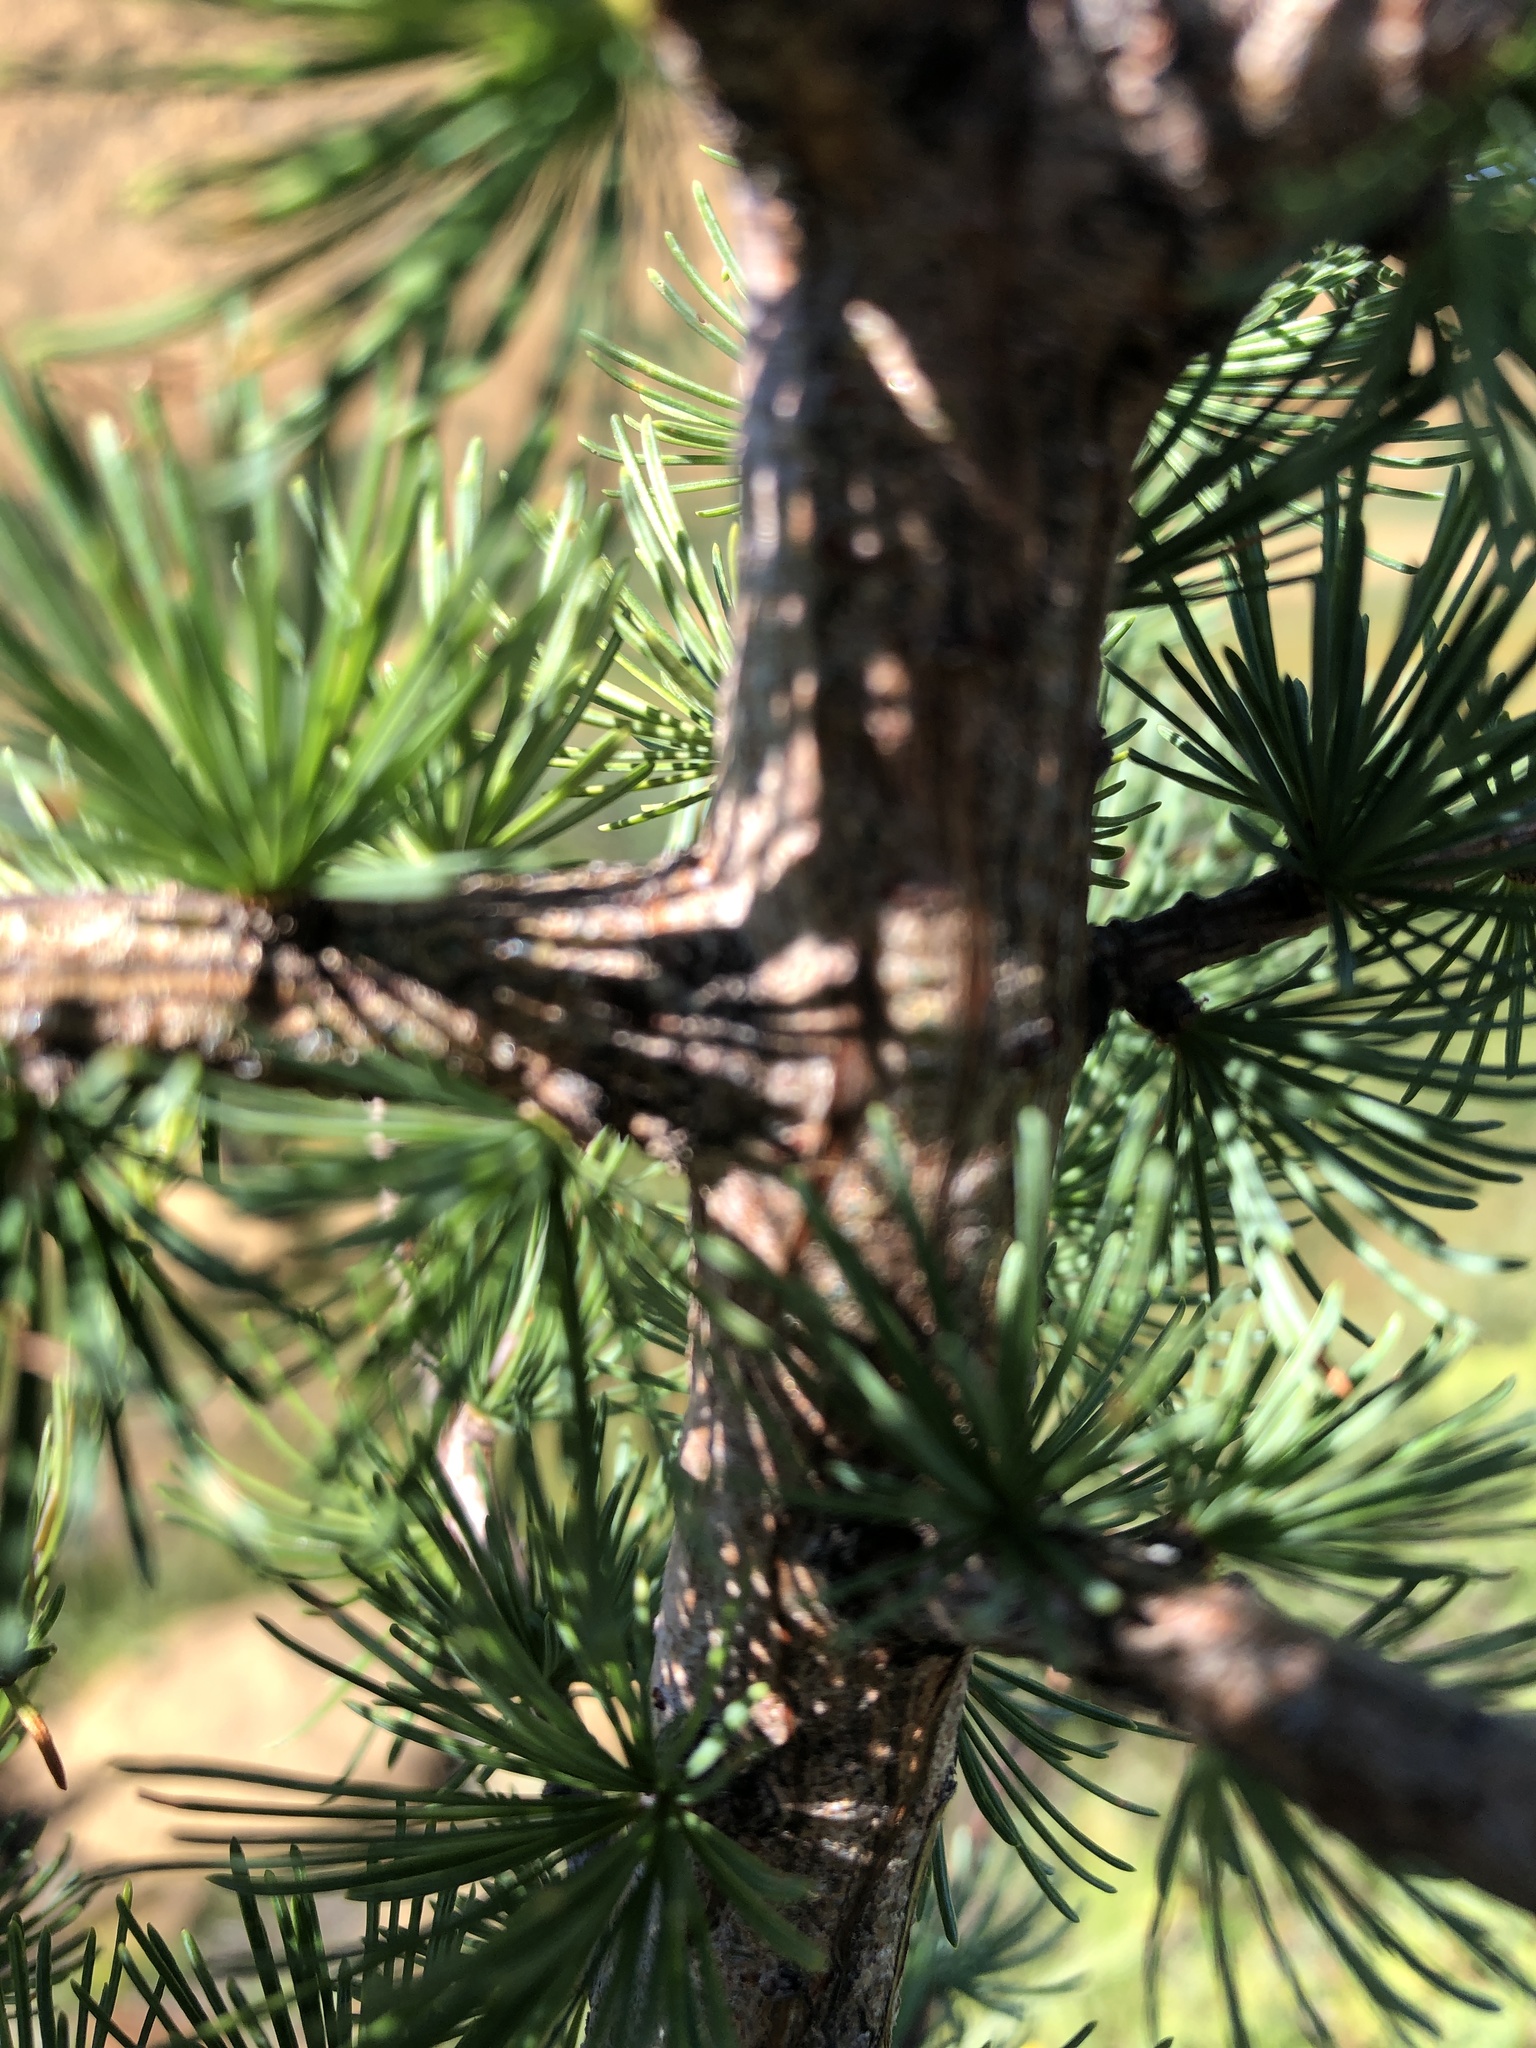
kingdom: Plantae
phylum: Tracheophyta
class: Pinopsida
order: Pinales
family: Pinaceae
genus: Larix
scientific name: Larix laricina
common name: American larch
